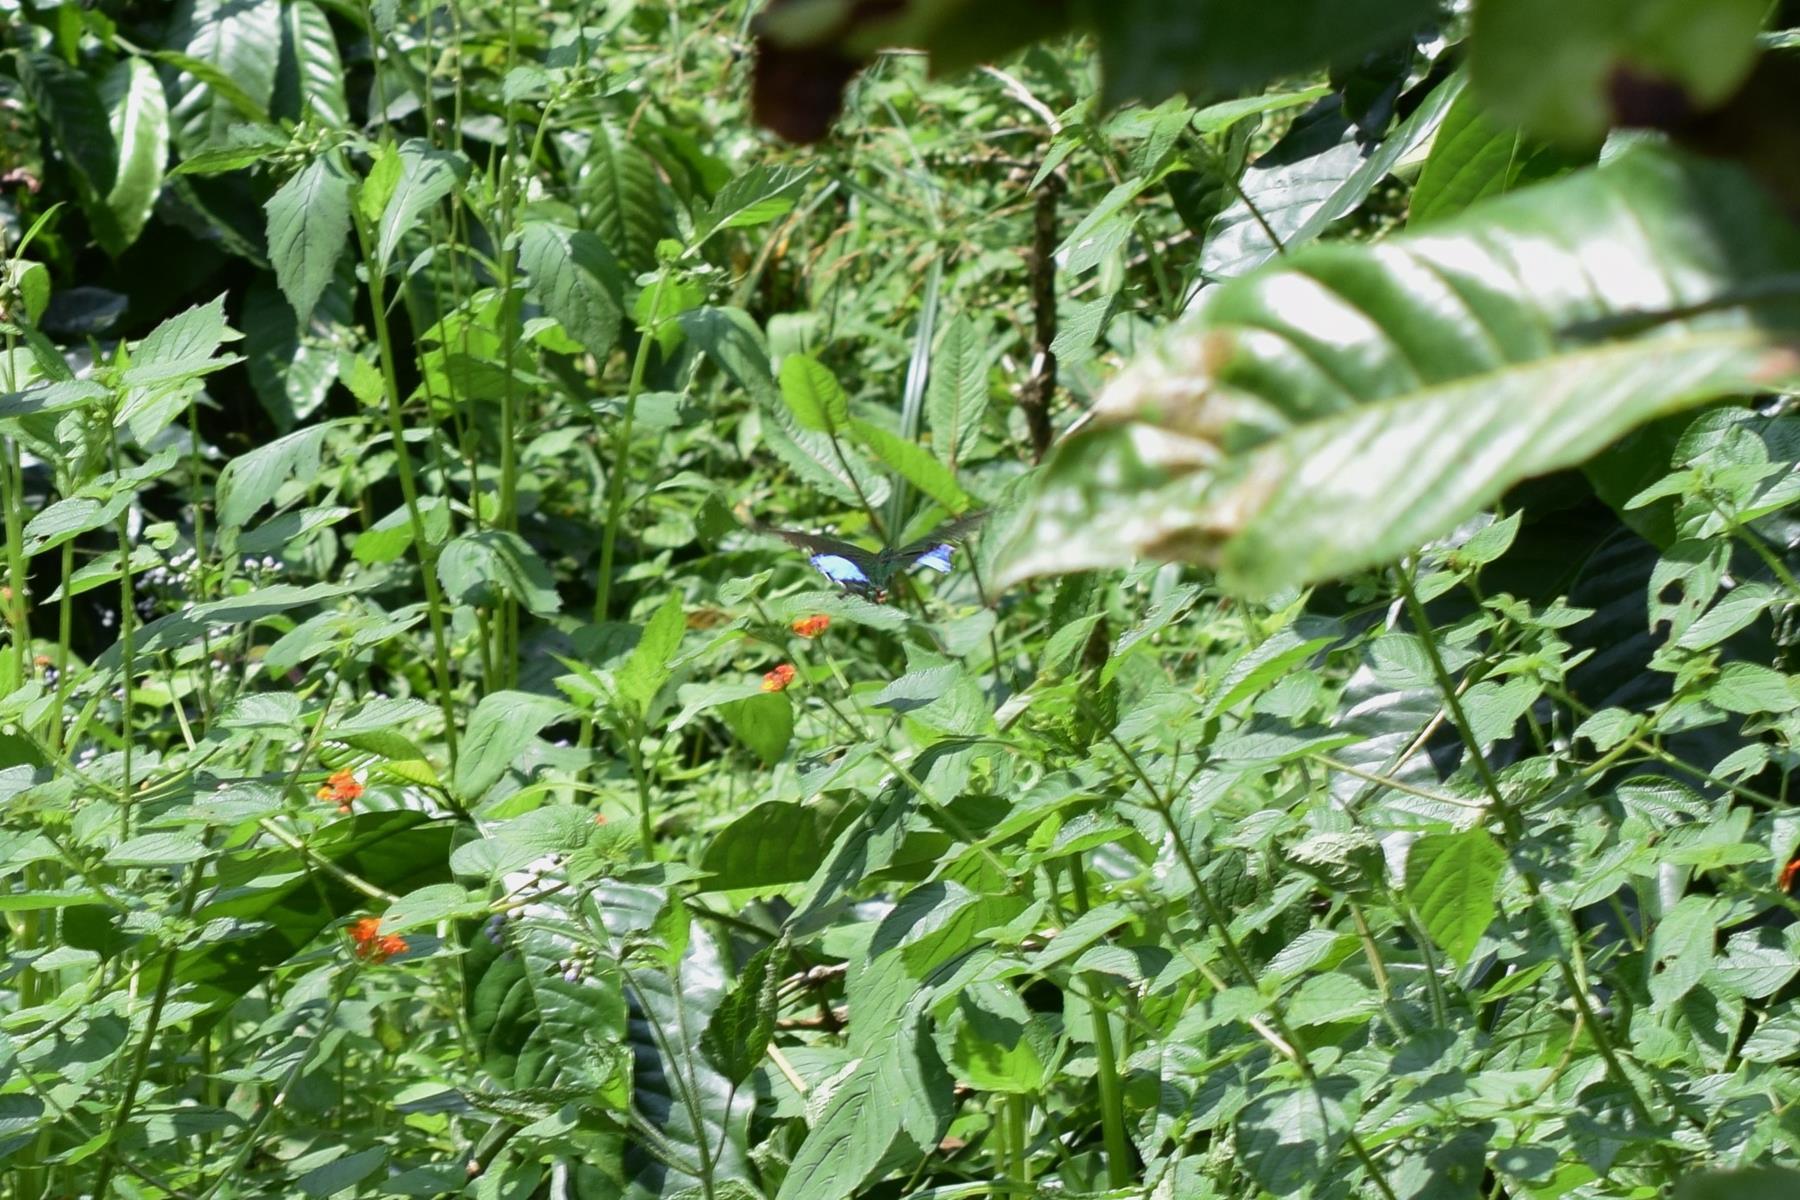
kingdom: Animalia
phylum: Arthropoda
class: Insecta
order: Lepidoptera
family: Papilionidae
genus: Papilio
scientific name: Papilio paris
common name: Paris peacock
